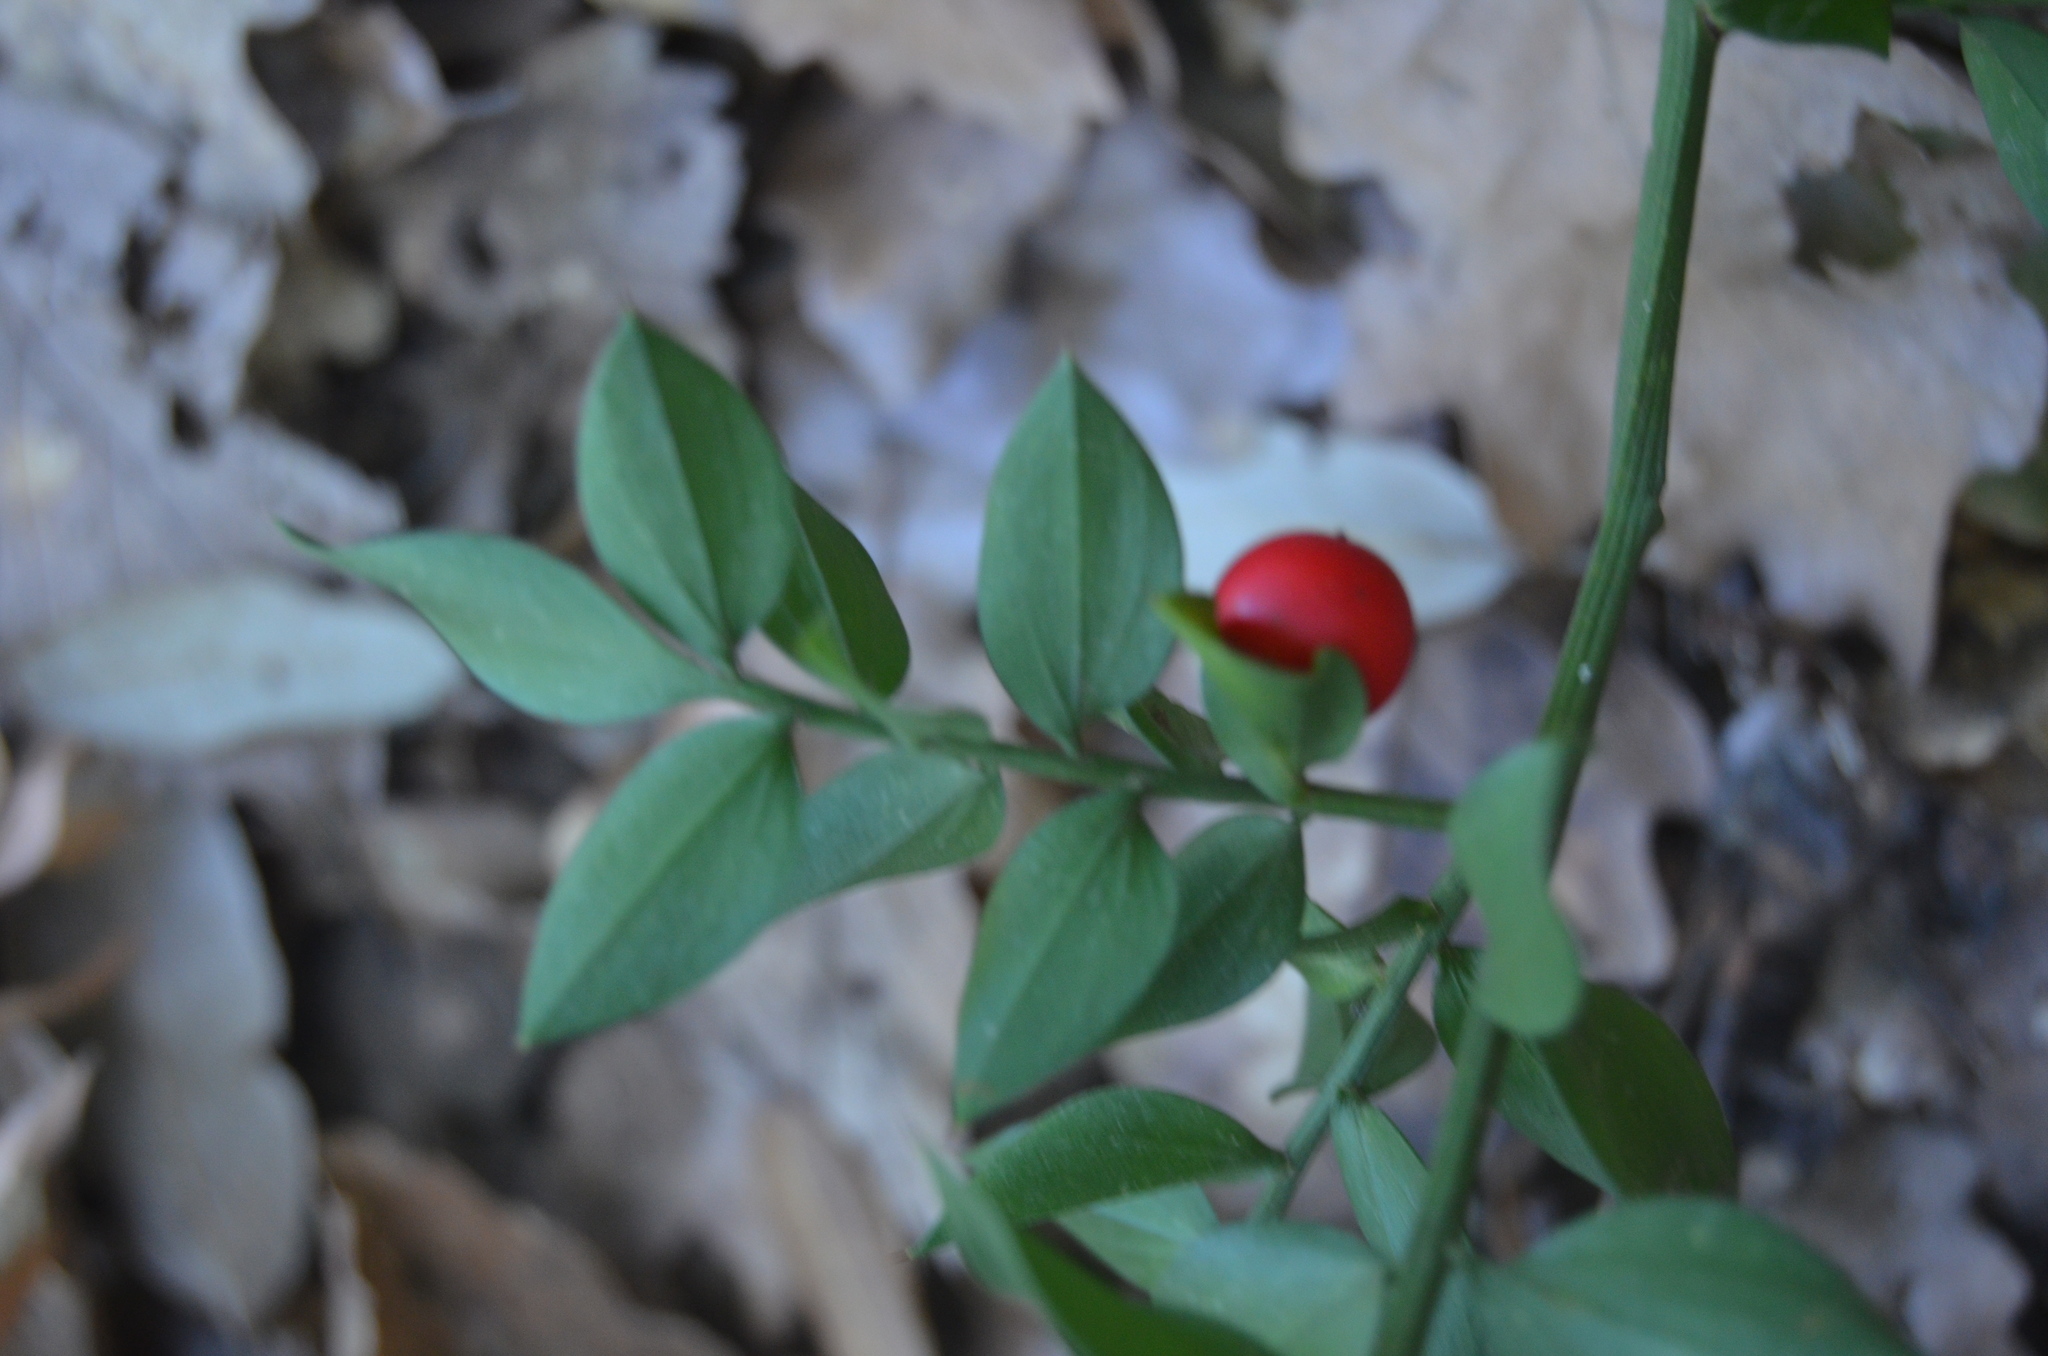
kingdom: Plantae
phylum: Tracheophyta
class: Liliopsida
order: Asparagales
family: Asparagaceae
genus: Ruscus
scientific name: Ruscus aculeatus
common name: Butcher's-broom
